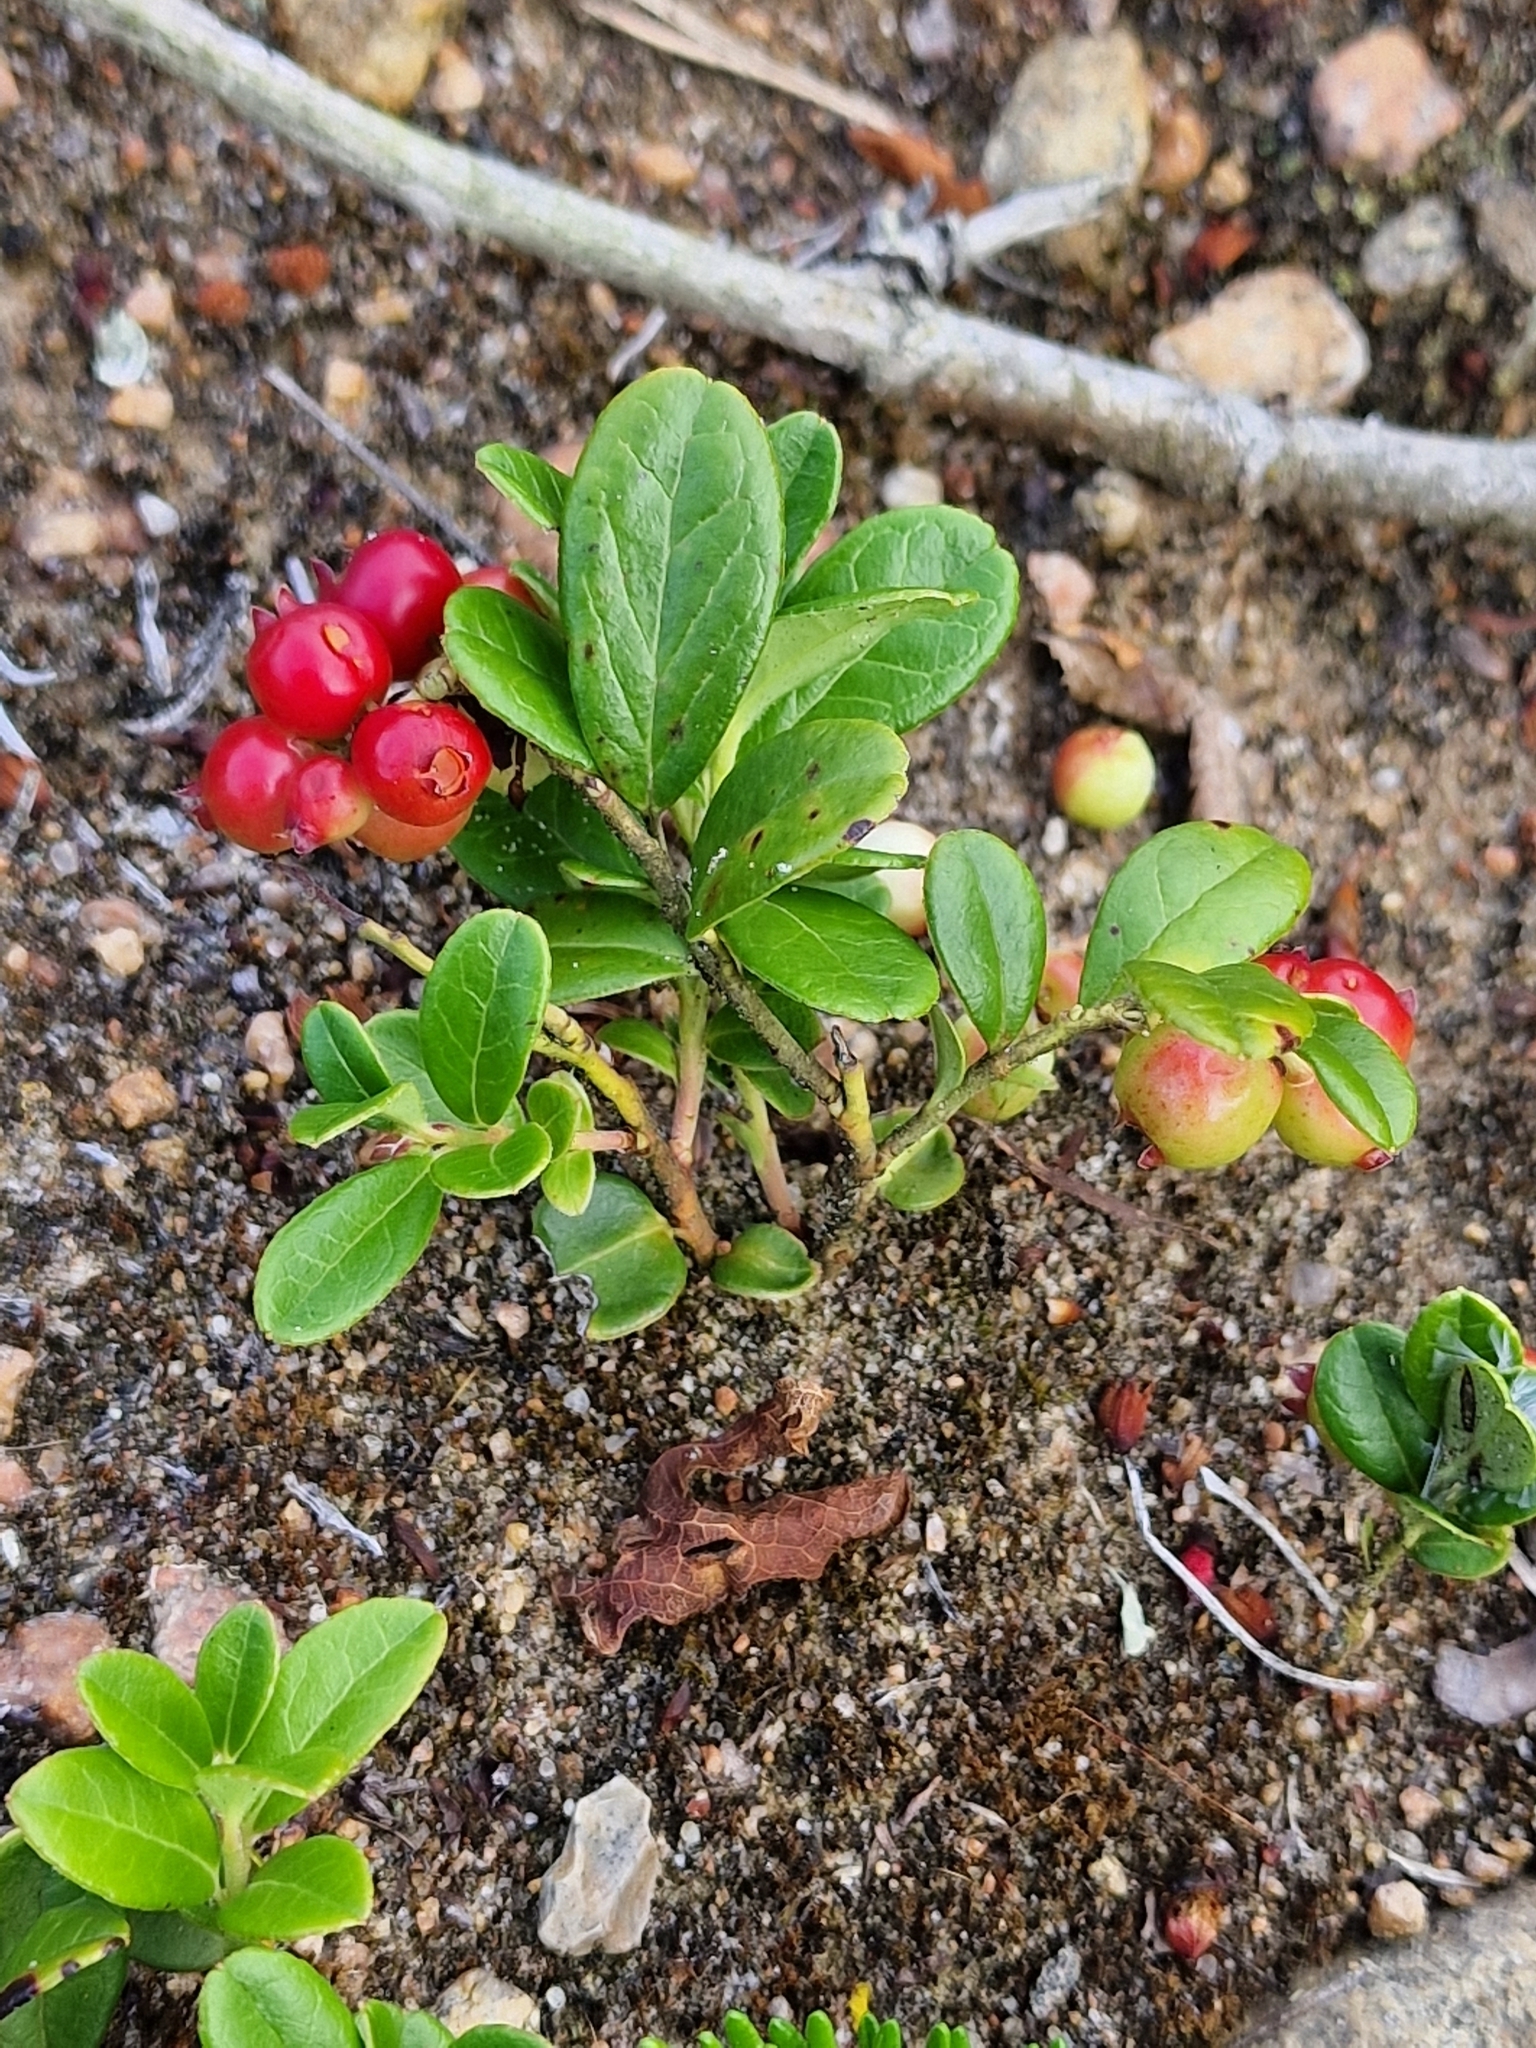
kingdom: Plantae
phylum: Tracheophyta
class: Magnoliopsida
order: Ericales
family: Ericaceae
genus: Vaccinium
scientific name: Vaccinium vitis-idaea
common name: Cowberry
